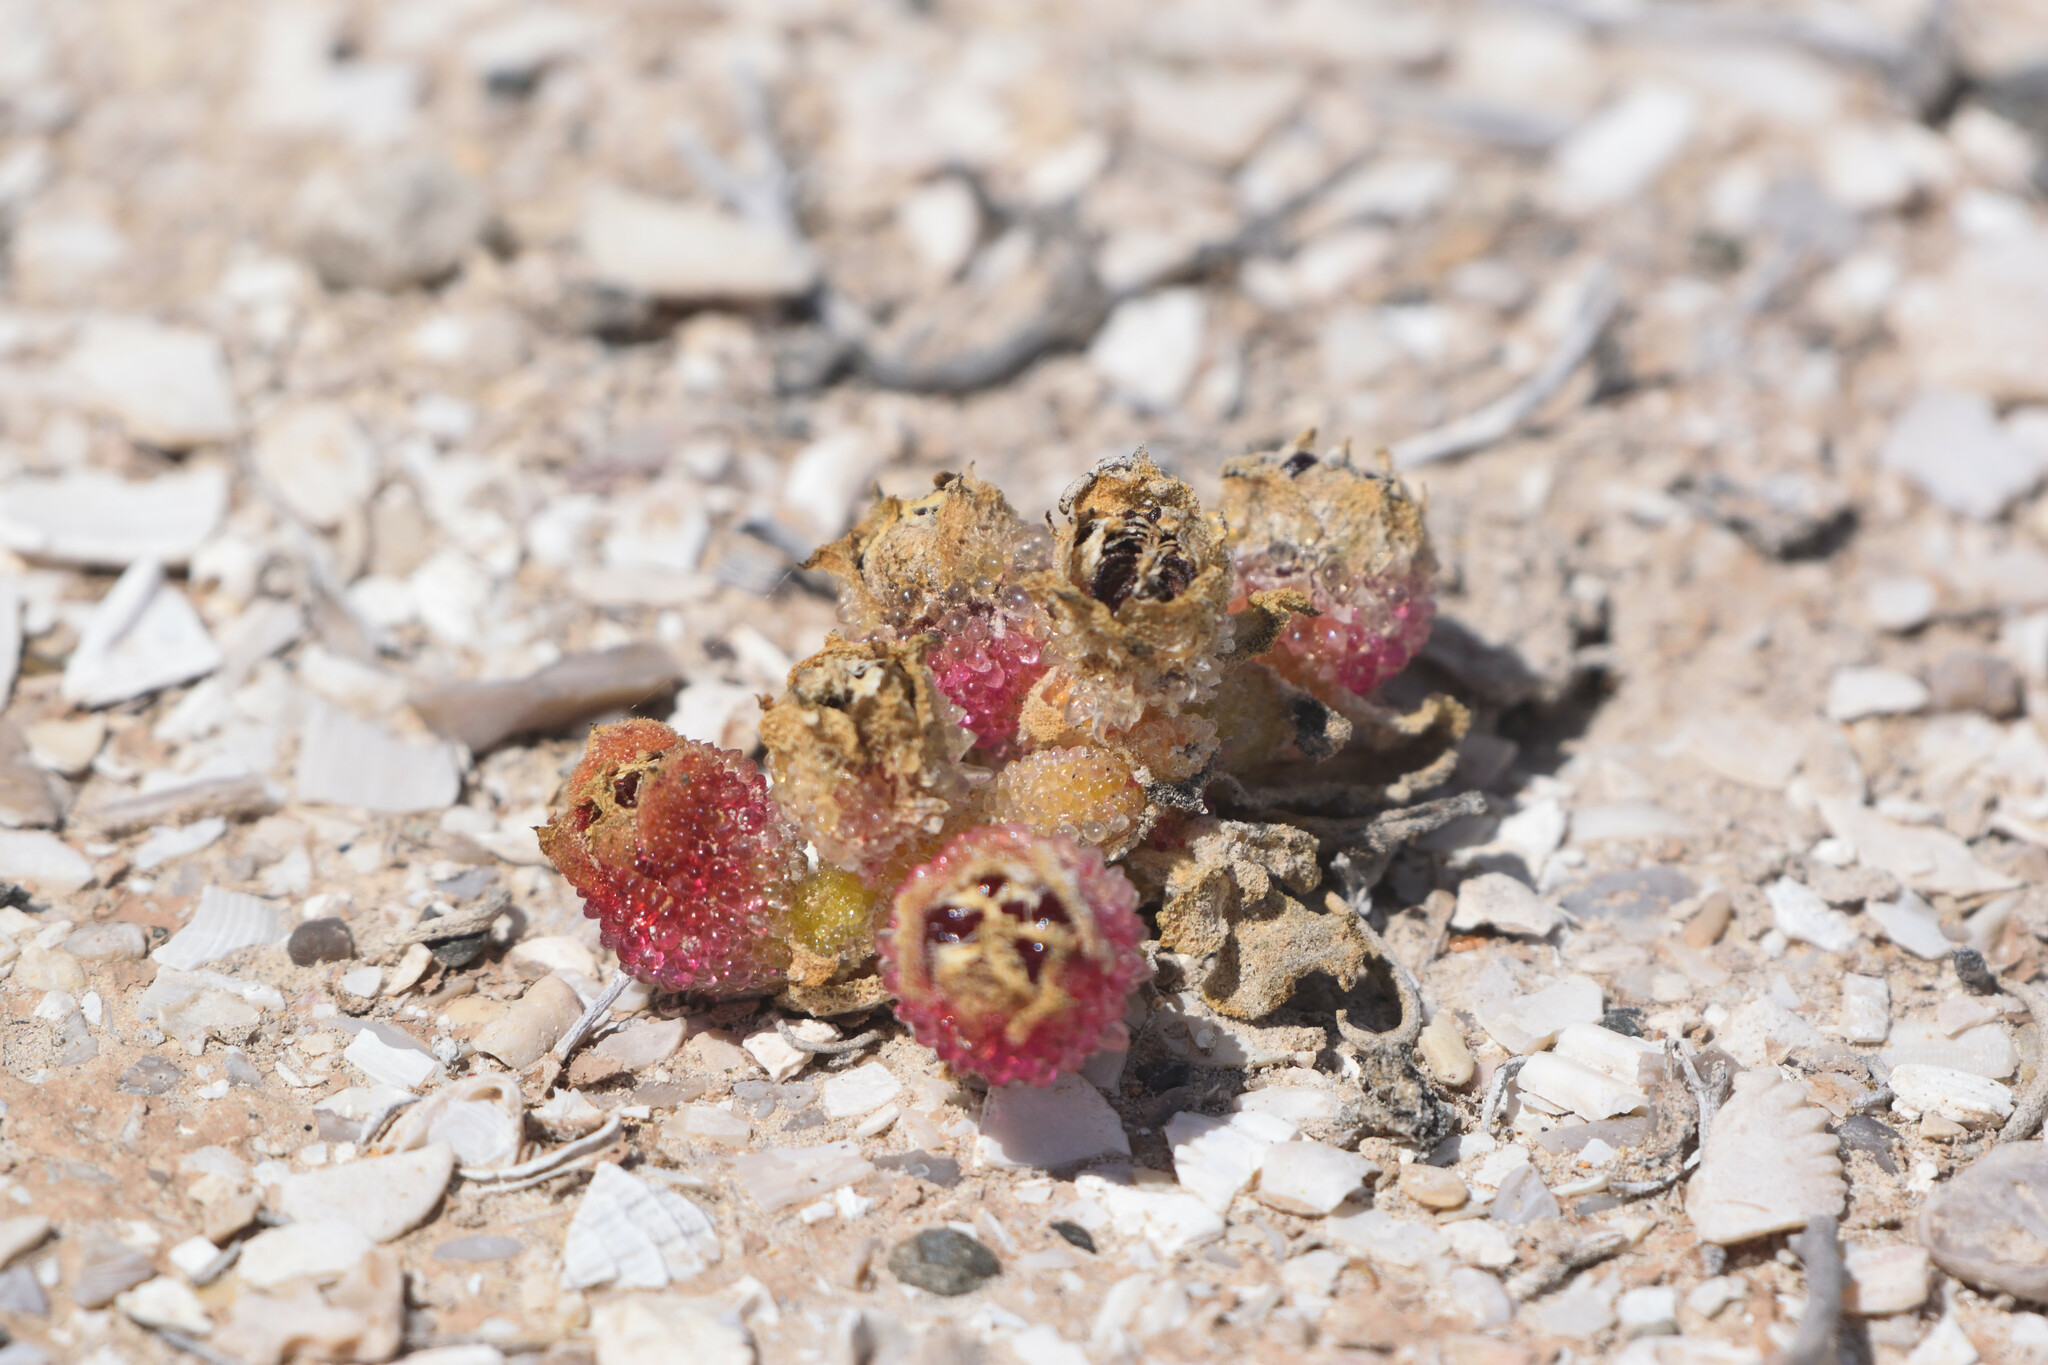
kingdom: Plantae
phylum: Tracheophyta
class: Magnoliopsida
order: Caryophyllales
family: Aizoaceae
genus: Mesembryanthemum
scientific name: Mesembryanthemum crystallinum
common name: Common iceplant
